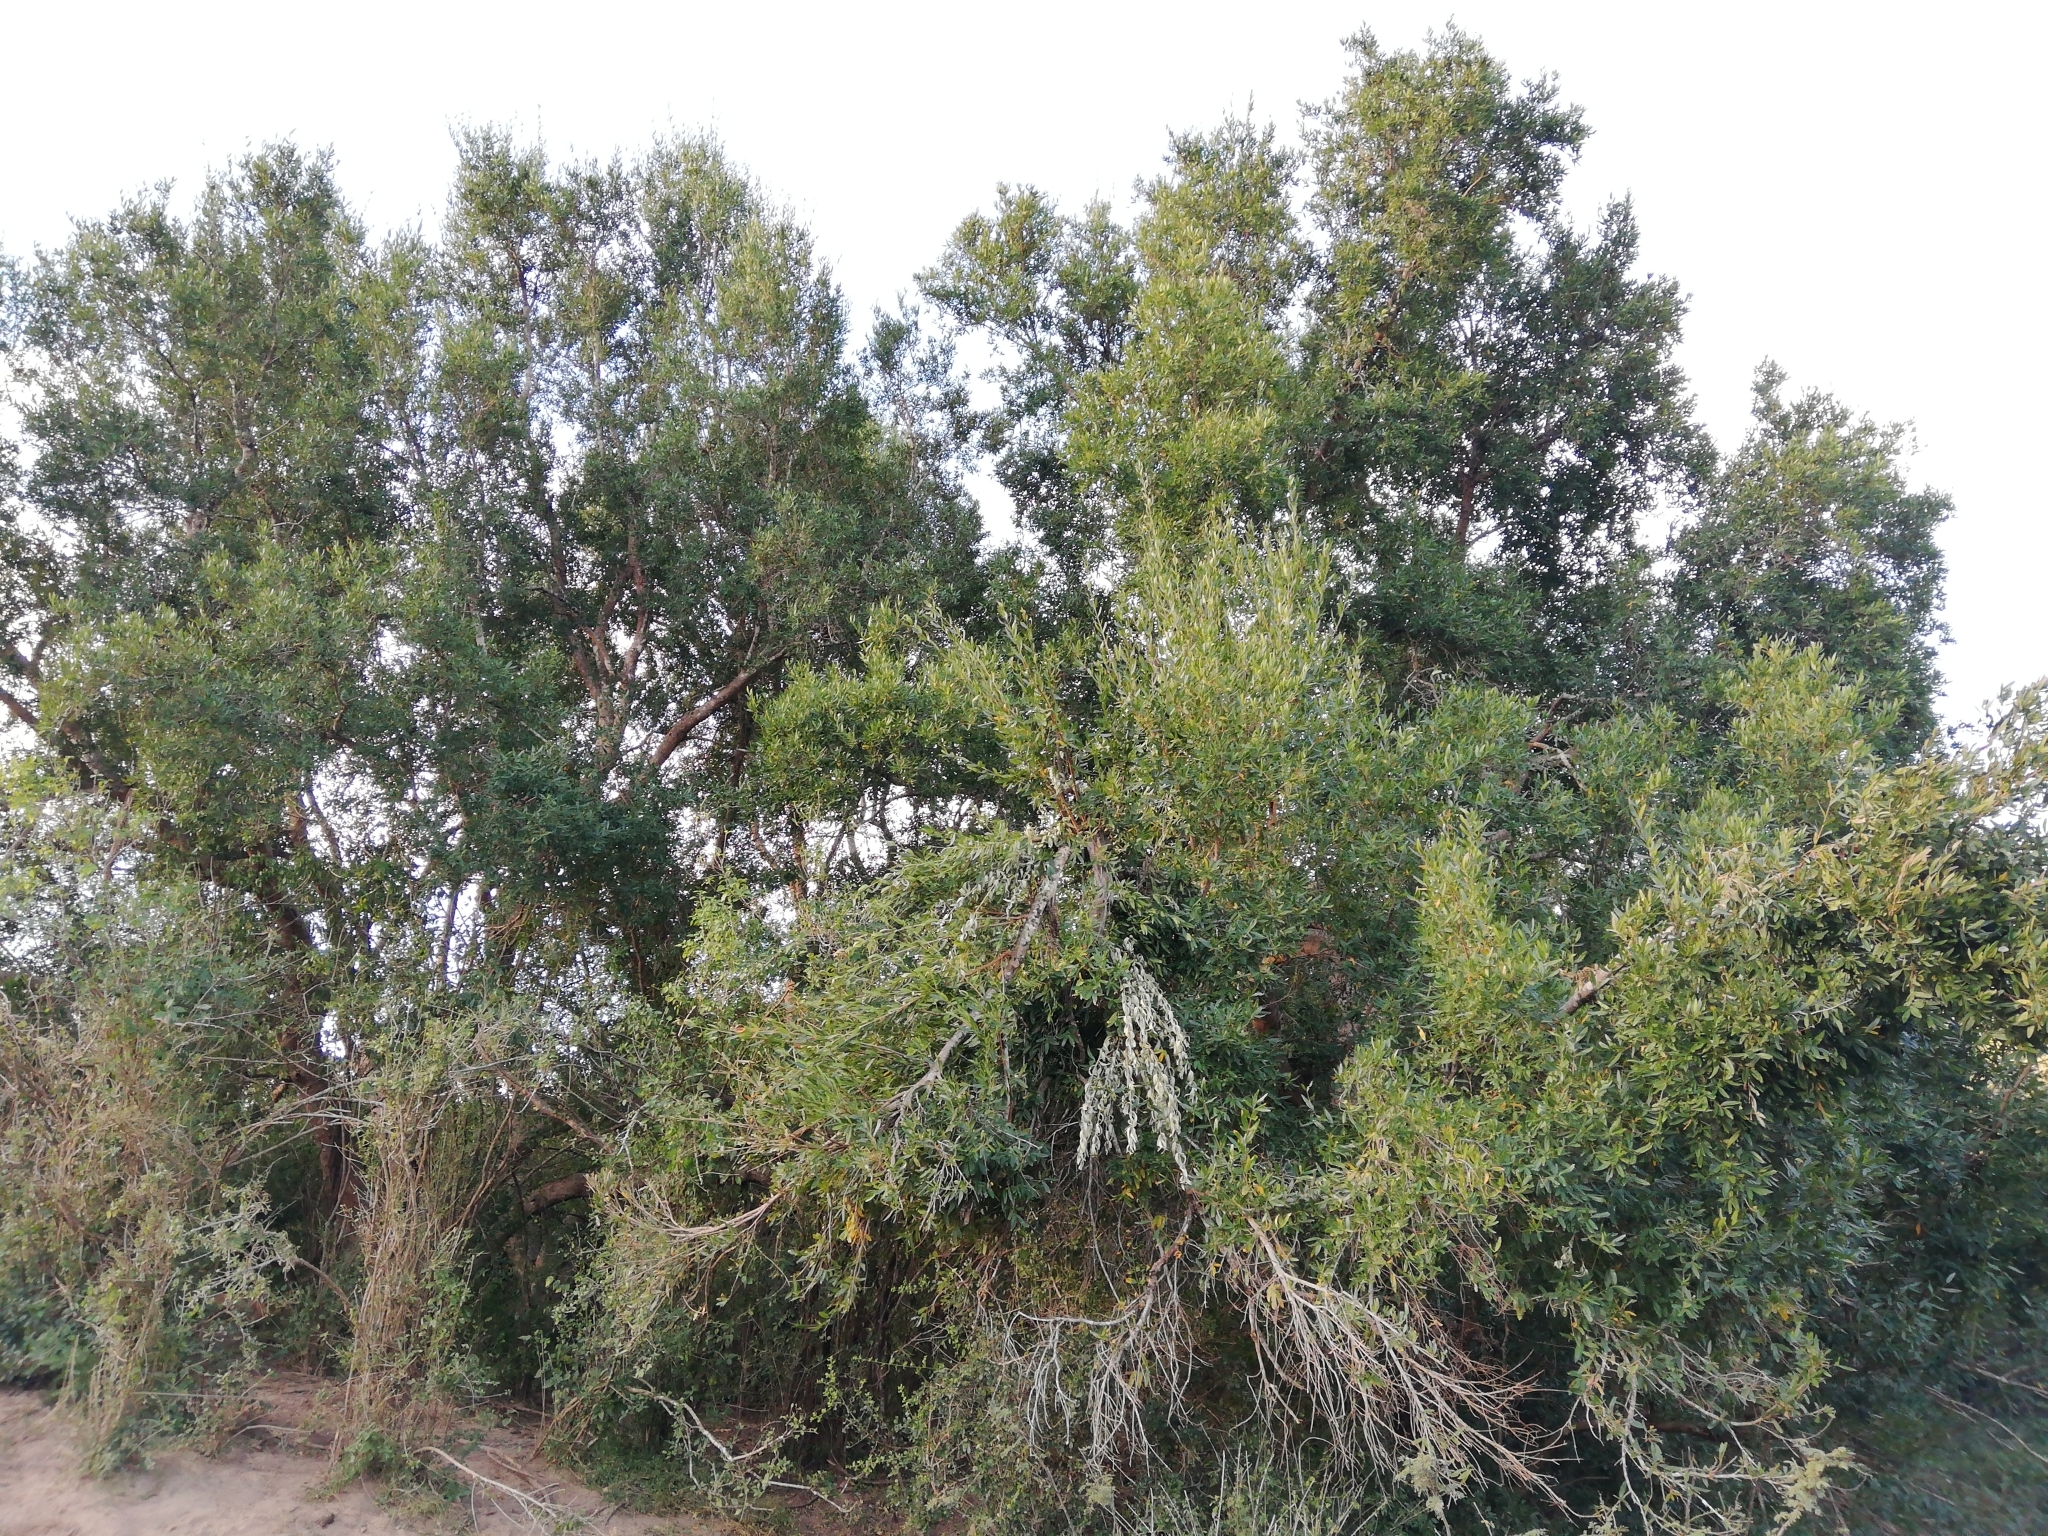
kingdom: Plantae
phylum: Tracheophyta
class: Magnoliopsida
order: Myrtales
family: Combretaceae
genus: Combretum
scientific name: Combretum caffrum
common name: Cape bushwillow
